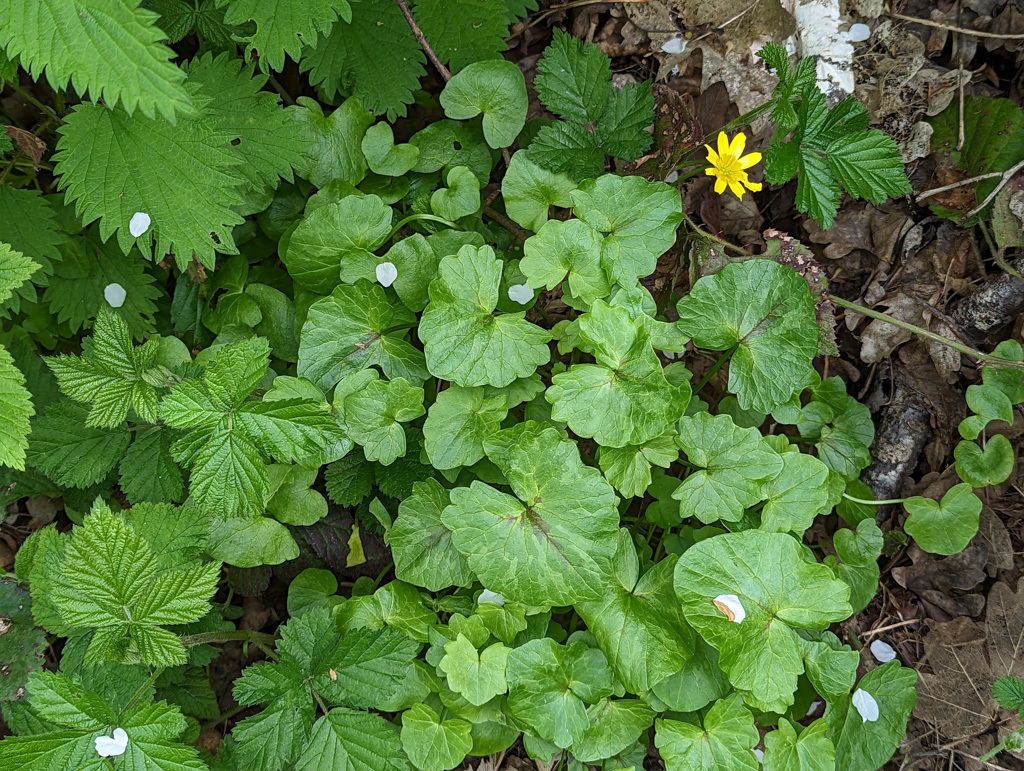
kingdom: Plantae
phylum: Tracheophyta
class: Magnoliopsida
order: Ranunculales
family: Ranunculaceae
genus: Ficaria
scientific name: Ficaria verna
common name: Lesser celandine
